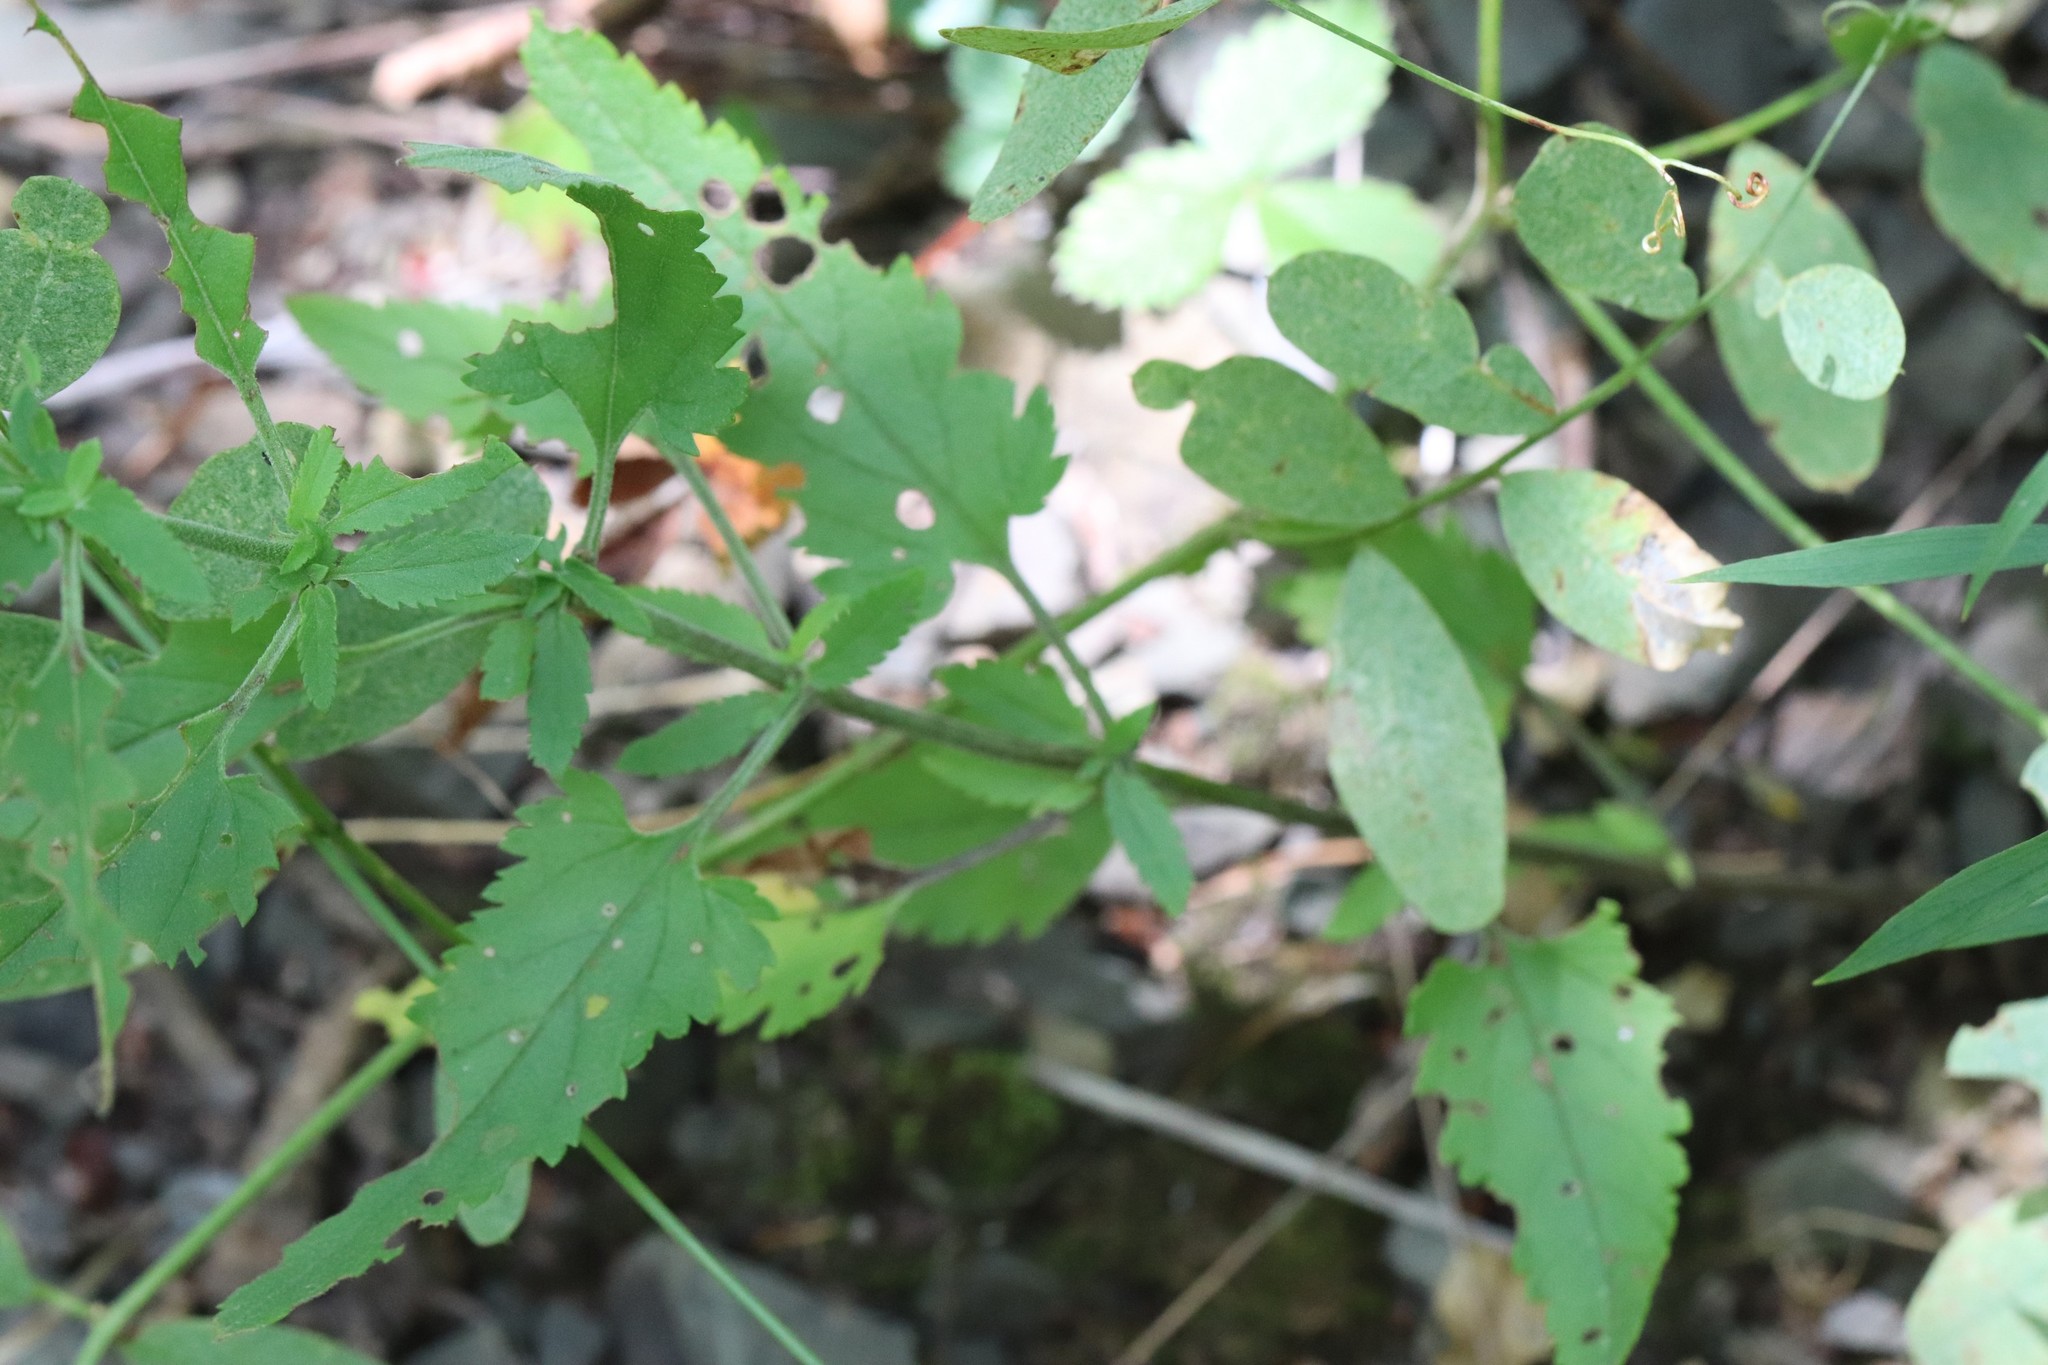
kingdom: Plantae
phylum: Tracheophyta
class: Magnoliopsida
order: Lamiales
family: Plantaginaceae
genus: Veronica
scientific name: Veronica daurica
